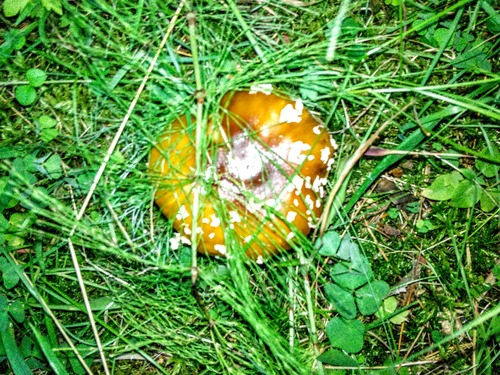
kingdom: Fungi
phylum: Basidiomycota
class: Agaricomycetes
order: Agaricales
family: Amanitaceae
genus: Amanita
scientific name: Amanita regalis
